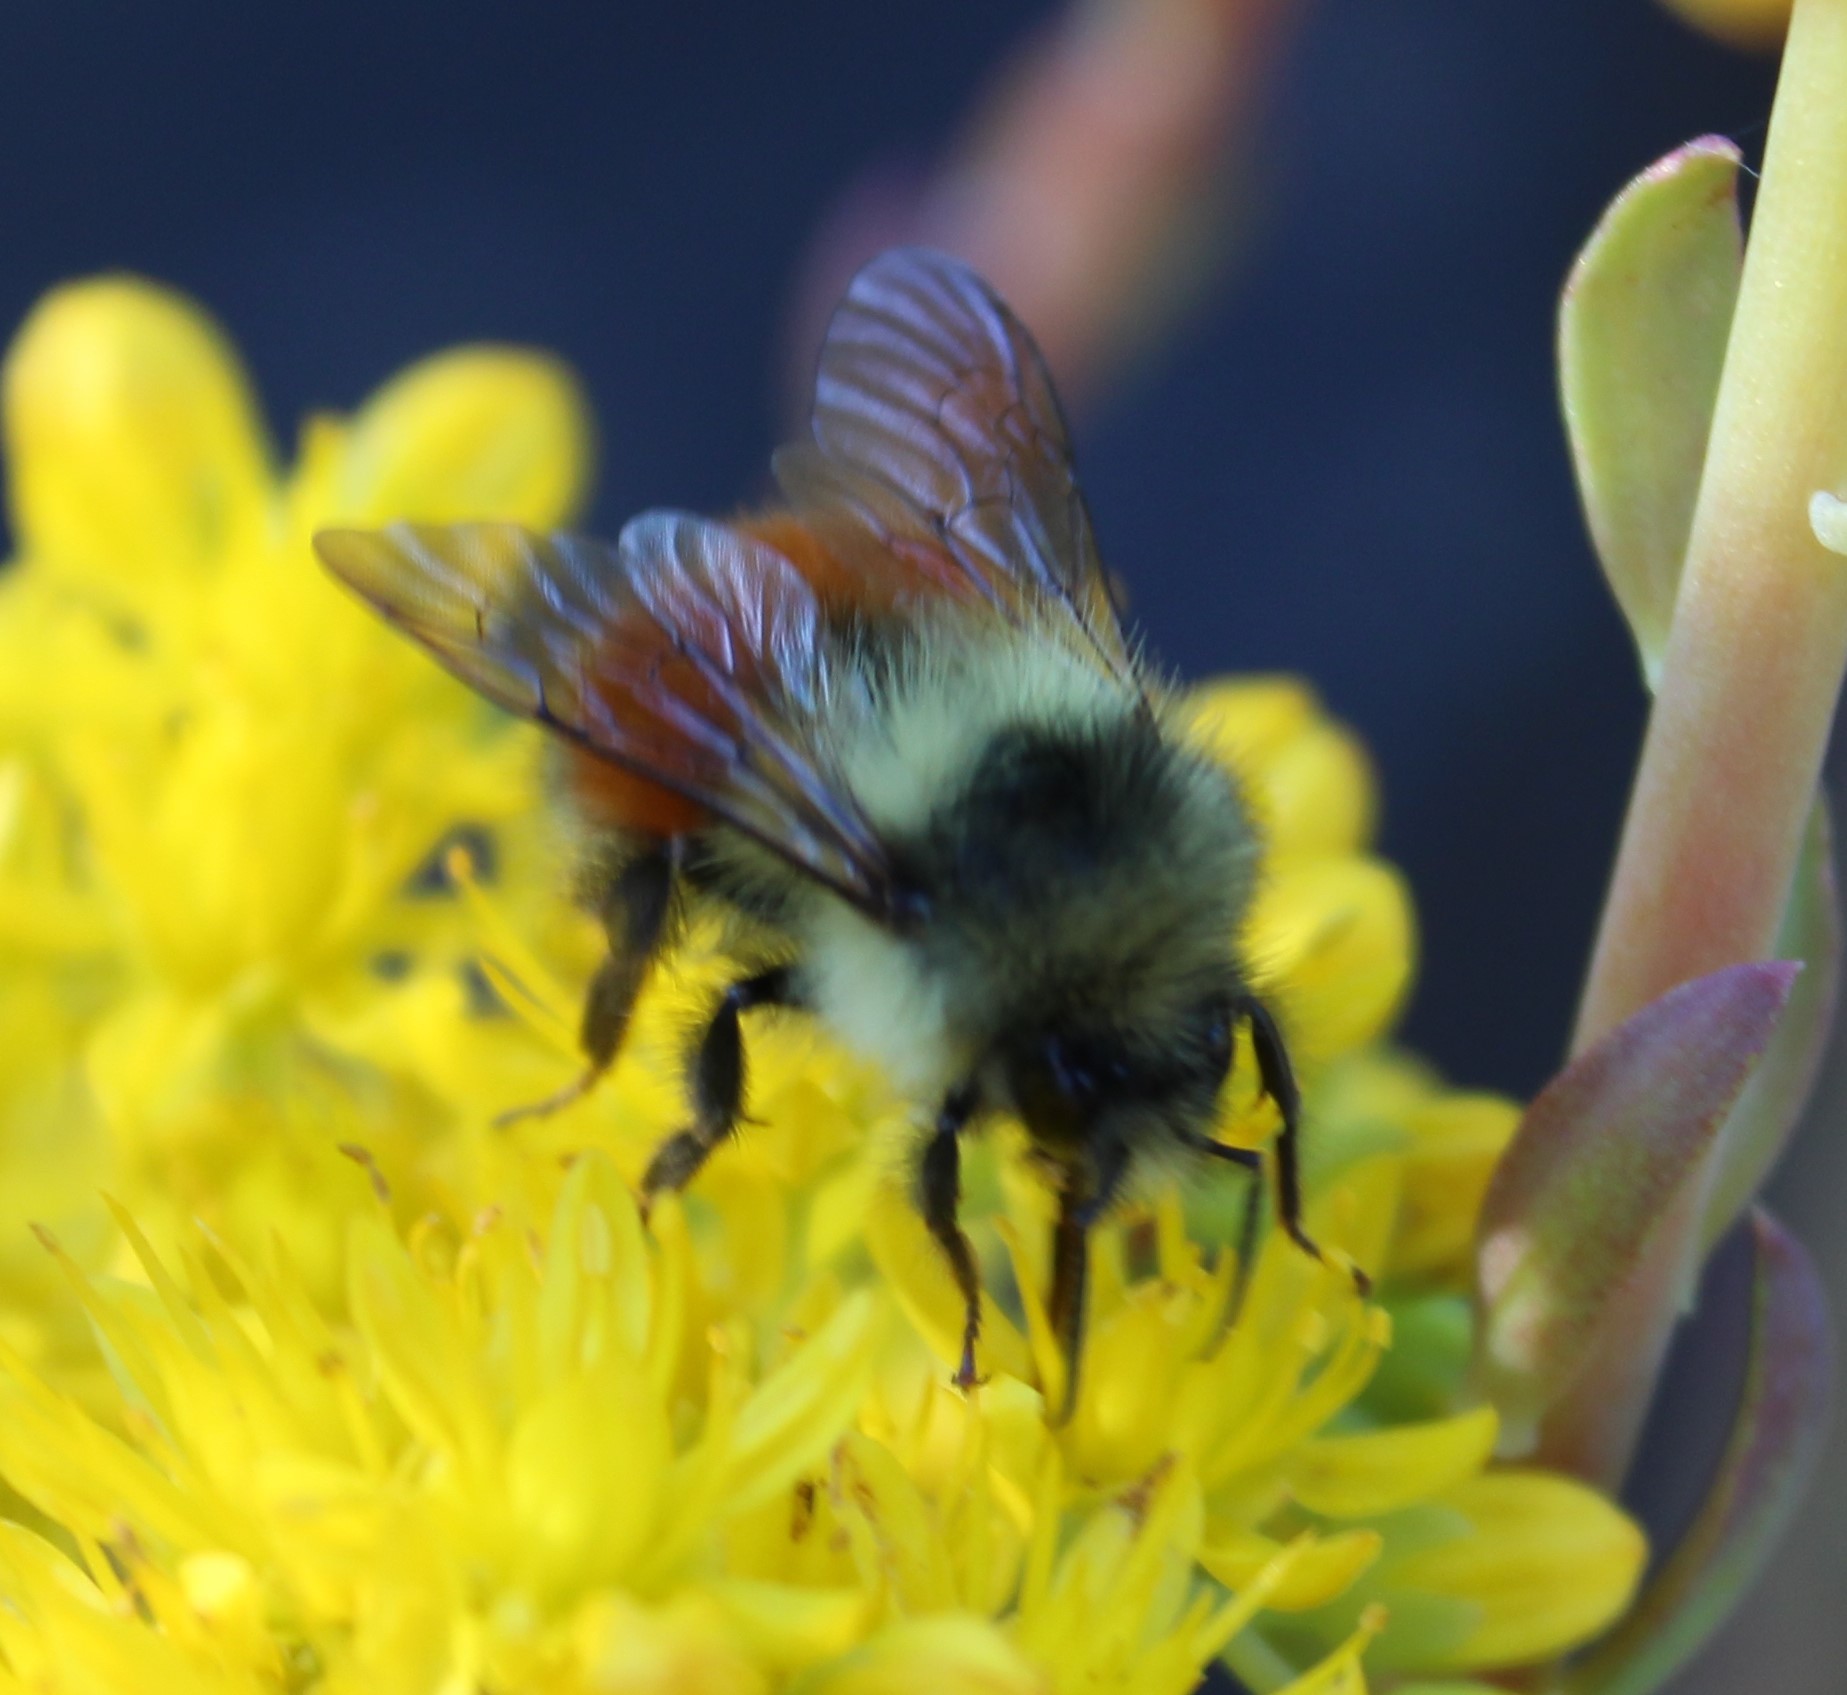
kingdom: Animalia
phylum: Arthropoda
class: Insecta
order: Hymenoptera
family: Apidae
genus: Bombus
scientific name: Bombus melanopygus
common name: Black tail bumble bee
